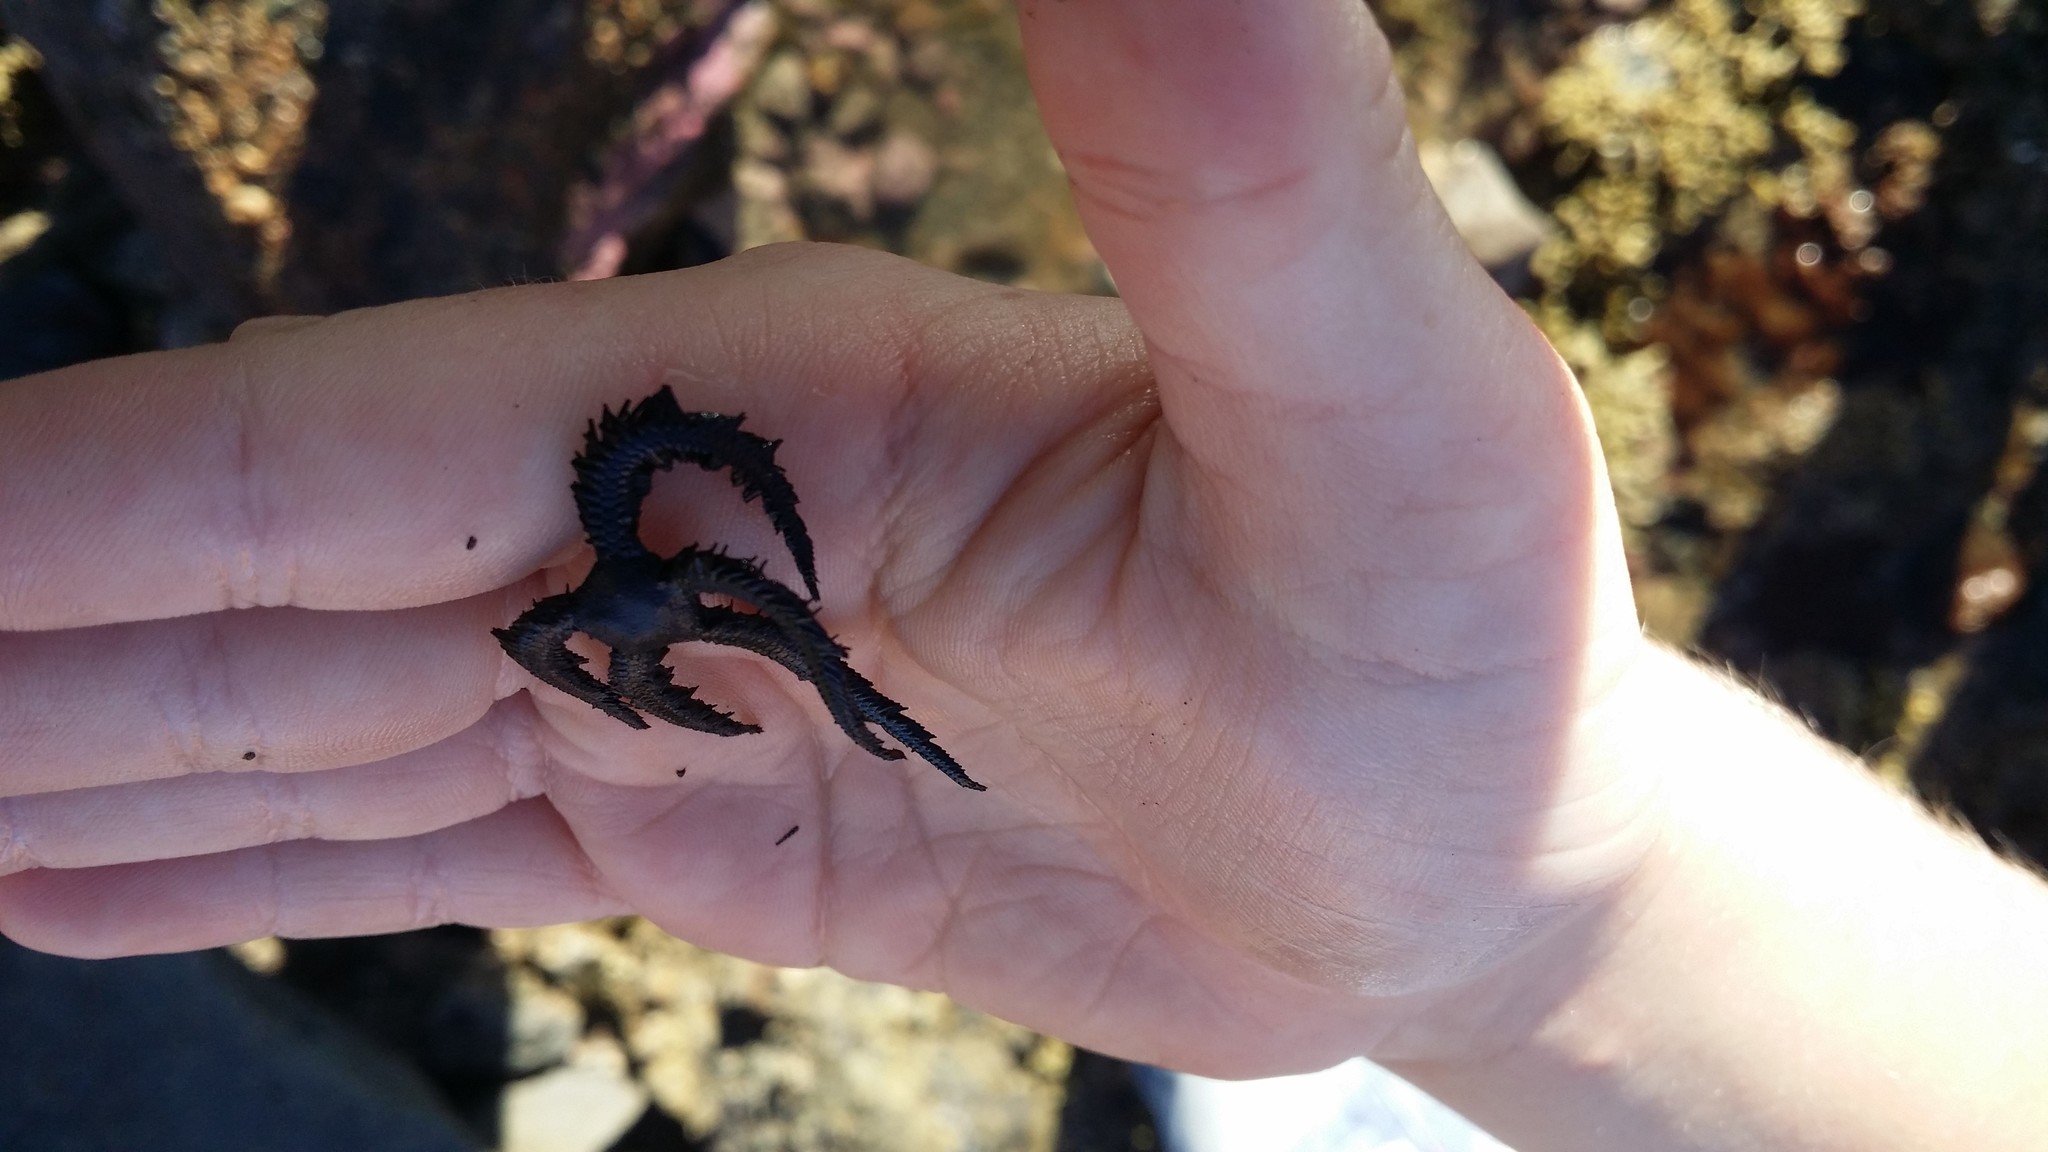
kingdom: Animalia
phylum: Echinodermata
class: Ophiuroidea
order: Ophiacanthida
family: Ophiopteridae
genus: Ophiopteris
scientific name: Ophiopteris antipodum
